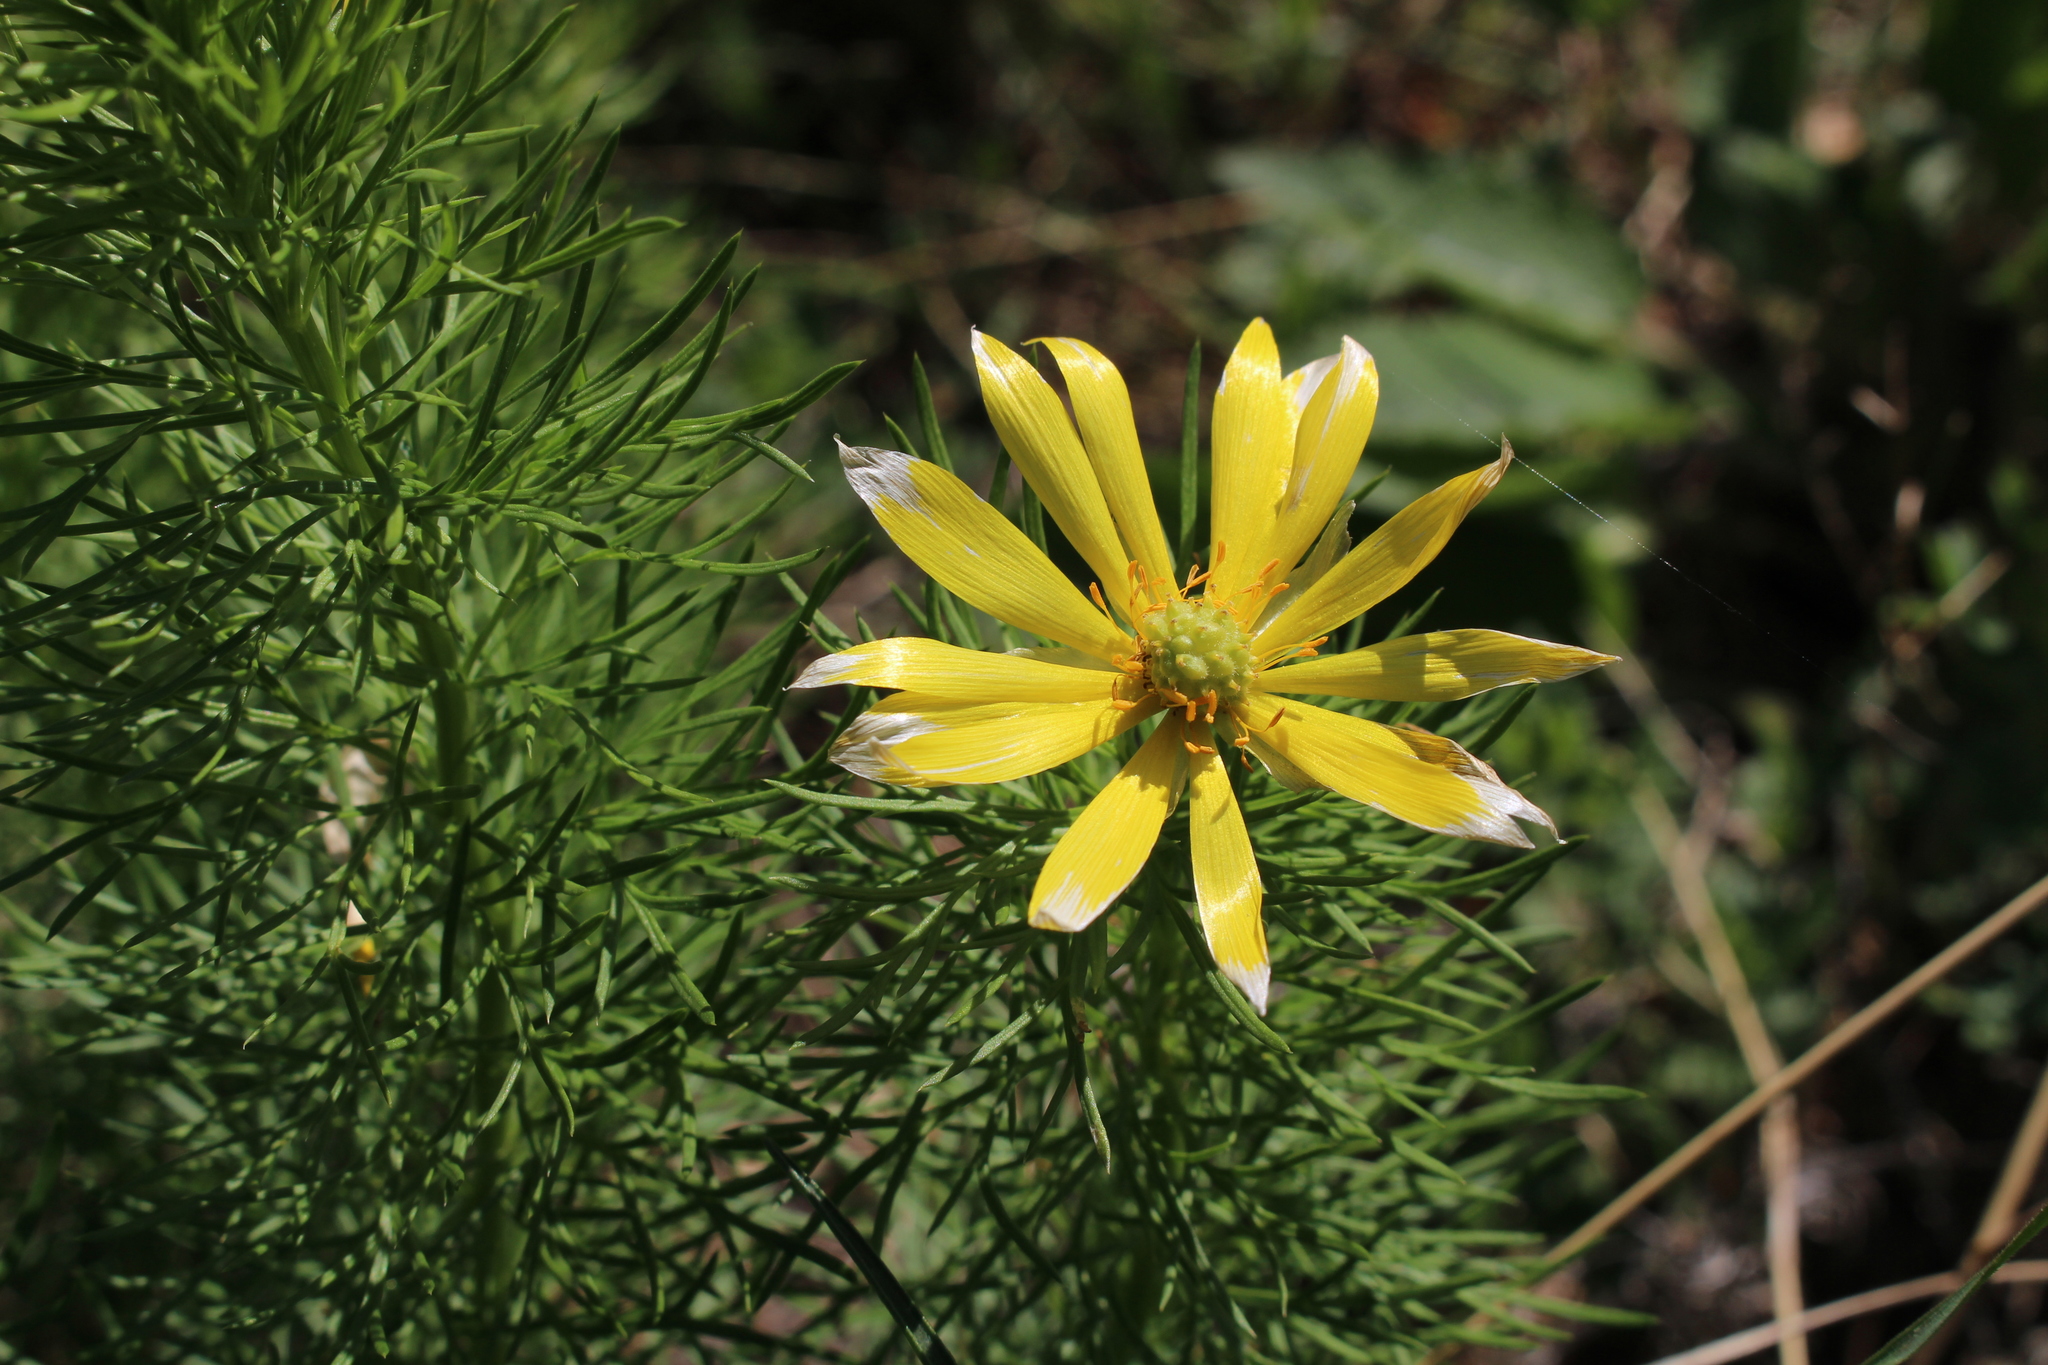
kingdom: Plantae
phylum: Tracheophyta
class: Magnoliopsida
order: Ranunculales
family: Ranunculaceae
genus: Adonis
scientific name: Adonis vernalis
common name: Yellow pheasants-eye
